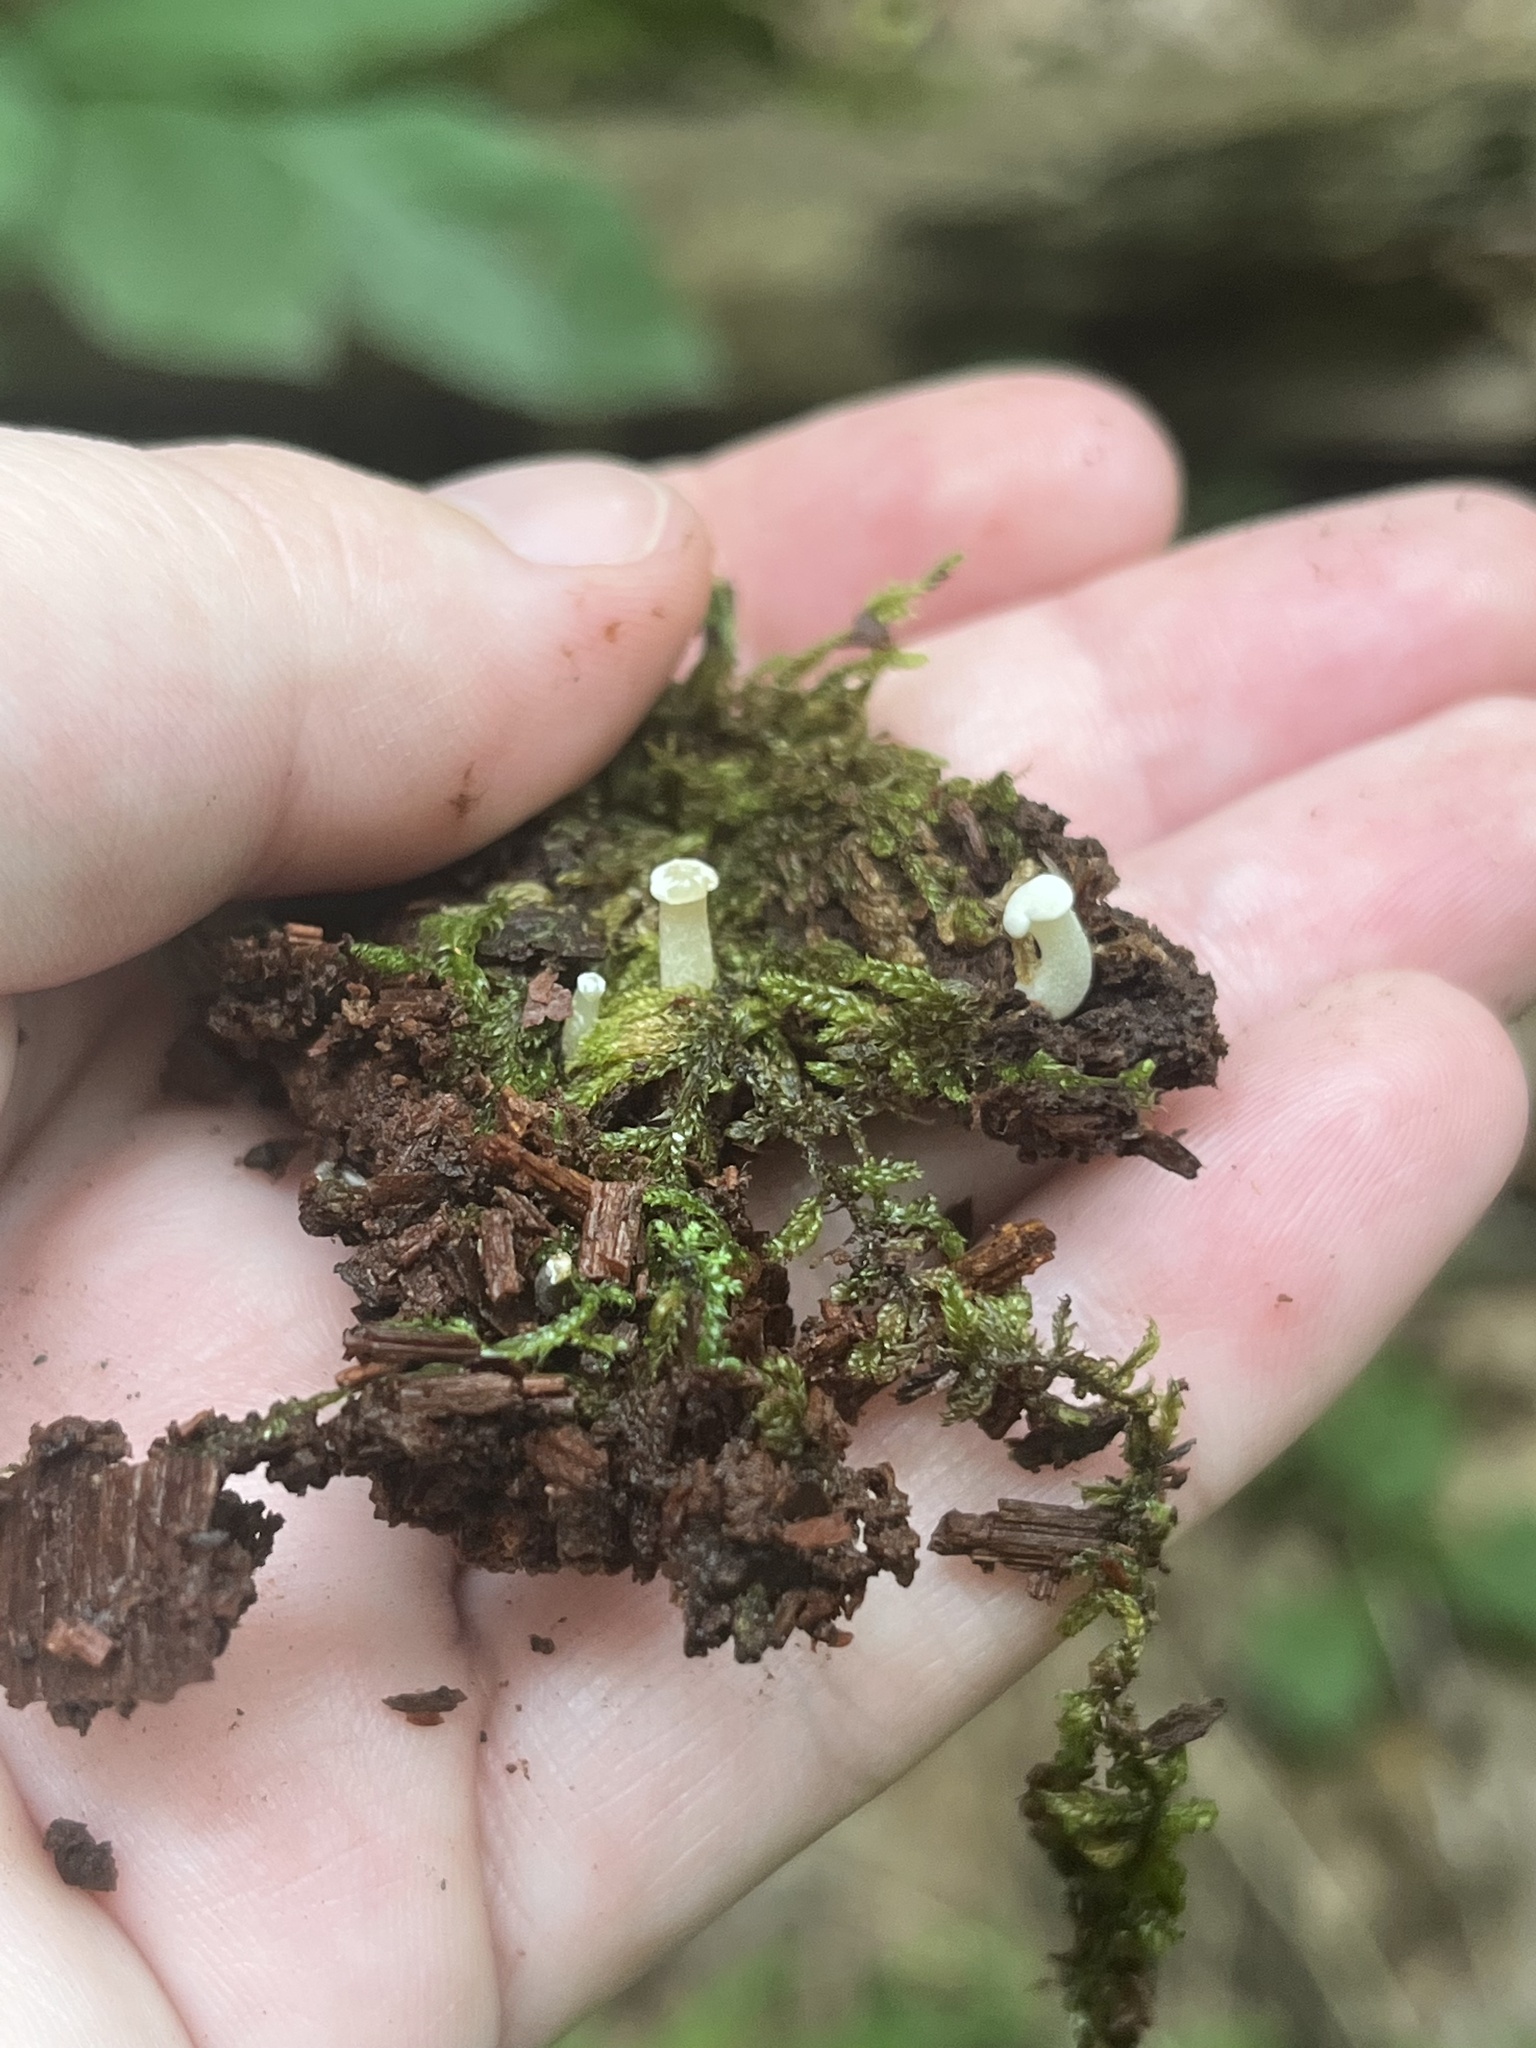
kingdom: Fungi
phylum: Ascomycota
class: Leotiomycetes
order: Helotiales
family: Tricladiaceae
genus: Cudoniella
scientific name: Cudoniella acicularis
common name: Oak pin
